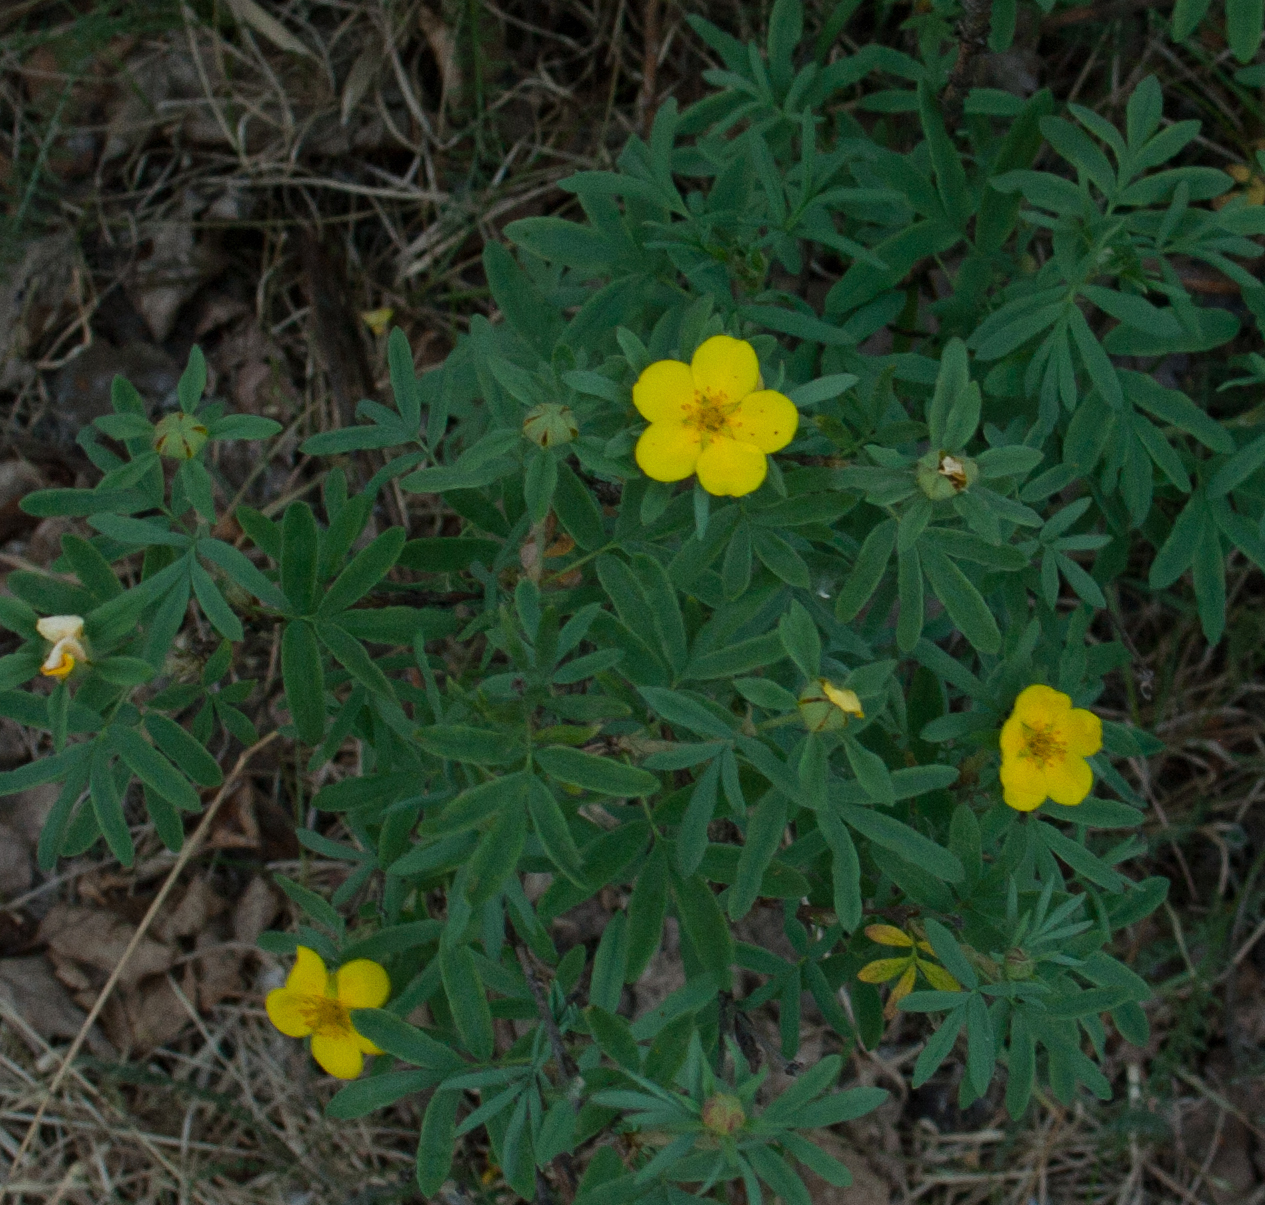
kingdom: Plantae
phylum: Tracheophyta
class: Magnoliopsida
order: Rosales
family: Rosaceae
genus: Dasiphora
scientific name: Dasiphora fruticosa
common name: Shrubby cinquefoil
